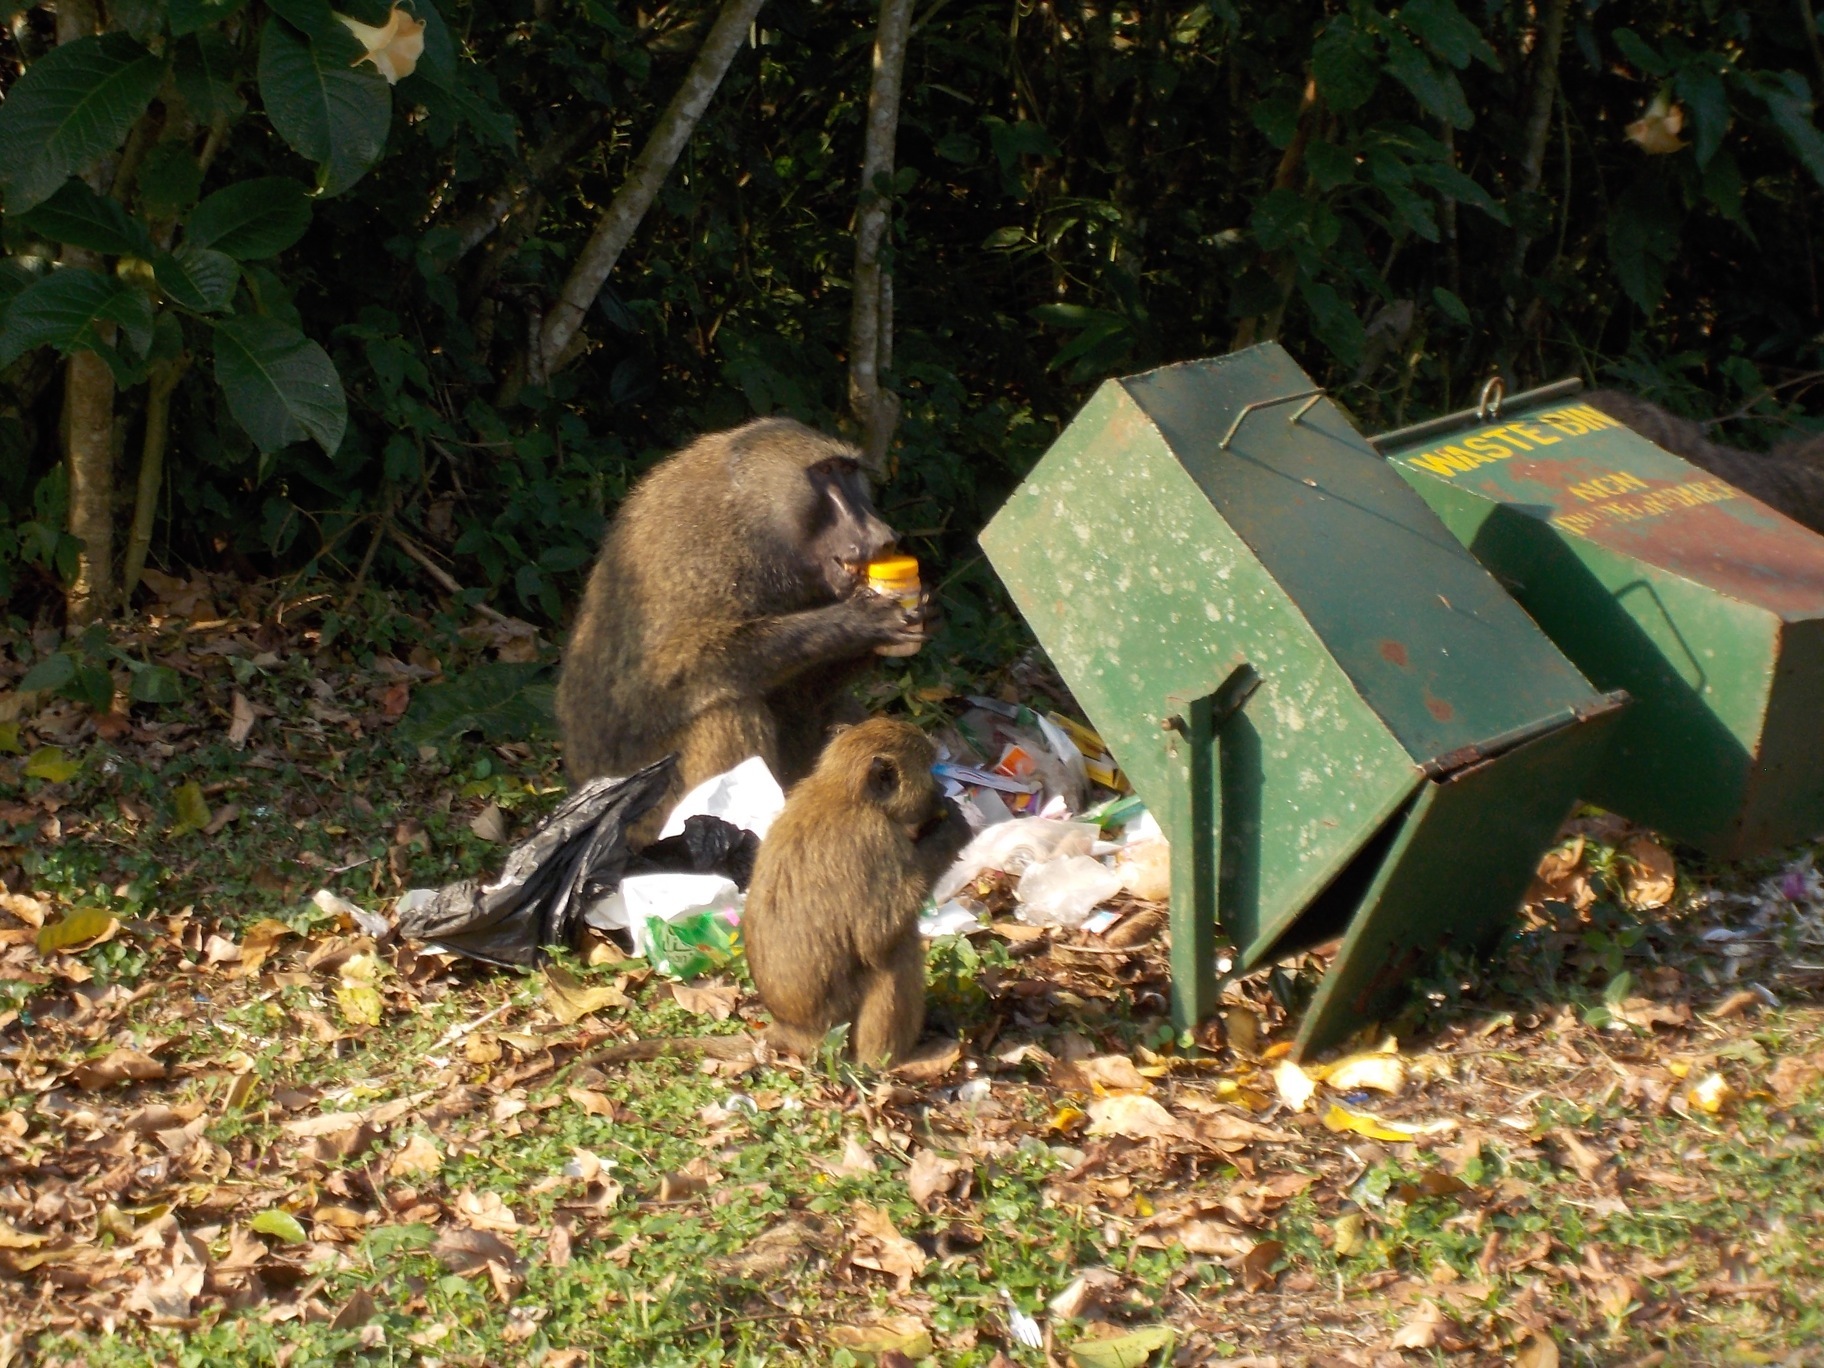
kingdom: Animalia
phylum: Chordata
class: Mammalia
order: Primates
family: Cercopithecidae
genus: Papio
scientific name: Papio anubis
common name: Olive baboon
